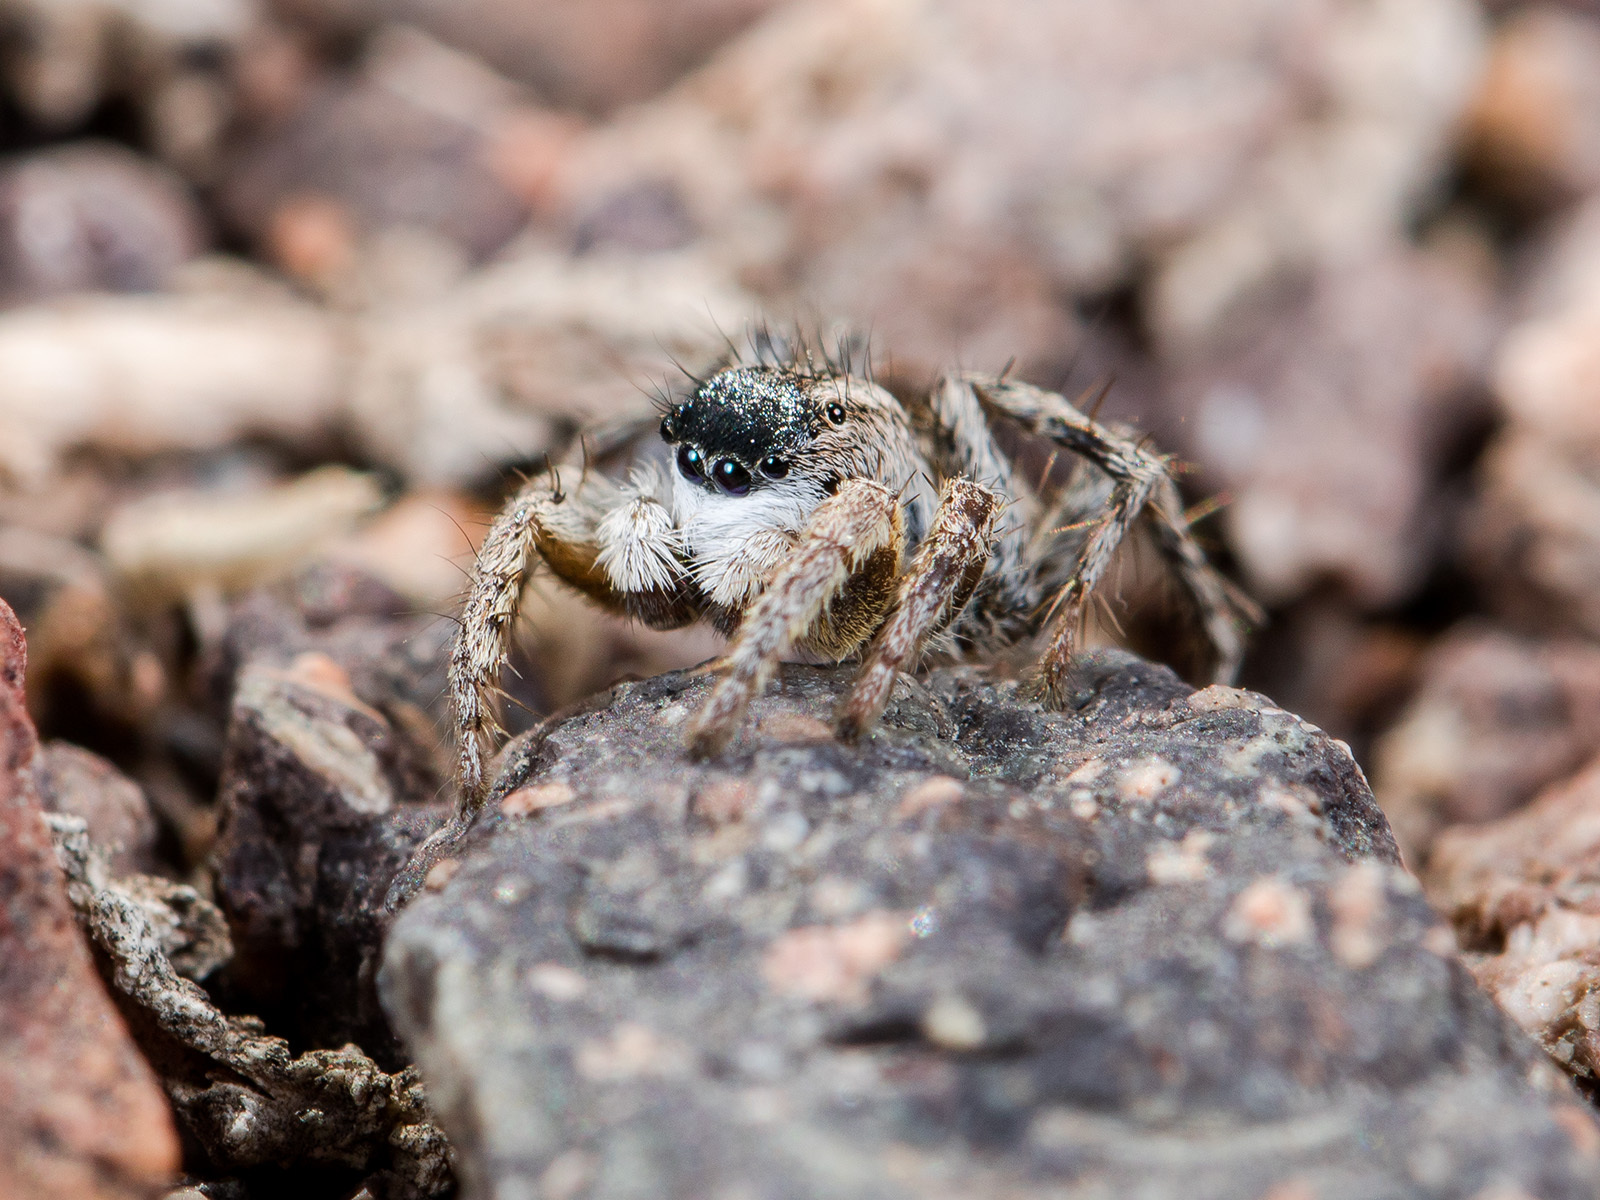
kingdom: Animalia
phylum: Arthropoda
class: Arachnida
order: Araneae
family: Salticidae
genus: Aelurillus
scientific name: Aelurillus m-nigrum
